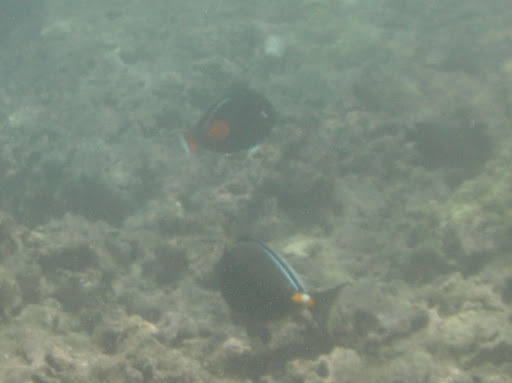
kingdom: Animalia
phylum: Chordata
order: Perciformes
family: Acanthuridae
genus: Acanthurus
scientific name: Acanthurus achilles
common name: Achilles tang
